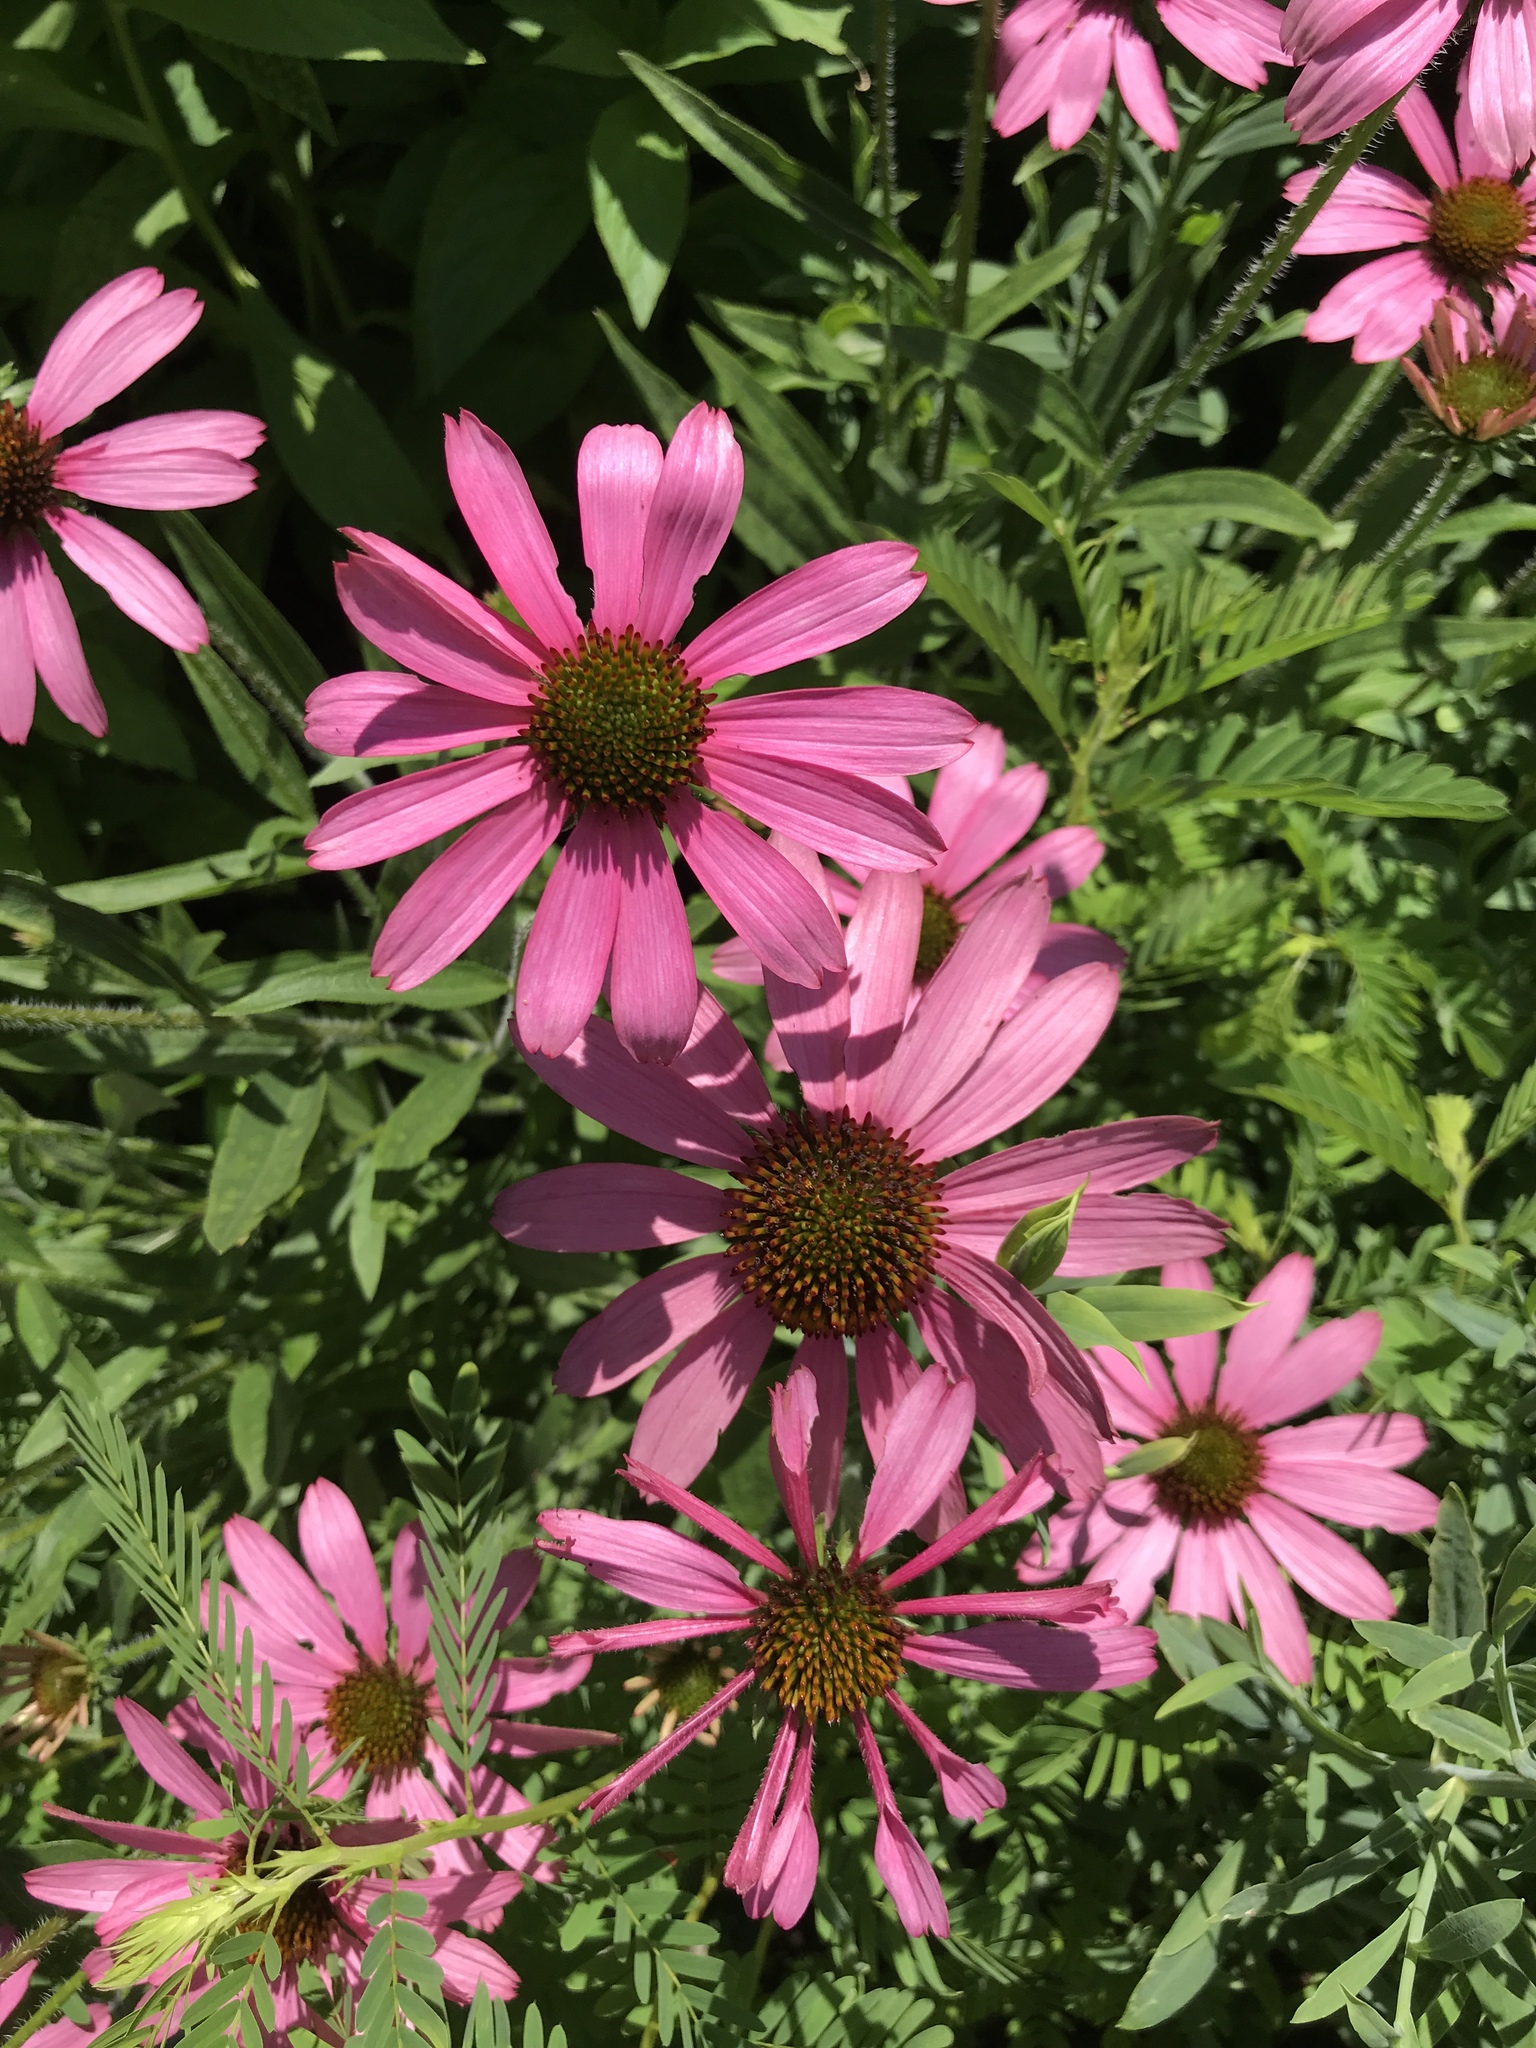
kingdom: Plantae
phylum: Tracheophyta
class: Magnoliopsida
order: Asterales
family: Asteraceae
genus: Echinacea
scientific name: Echinacea purpurea
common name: Broad-leaved purple coneflower
